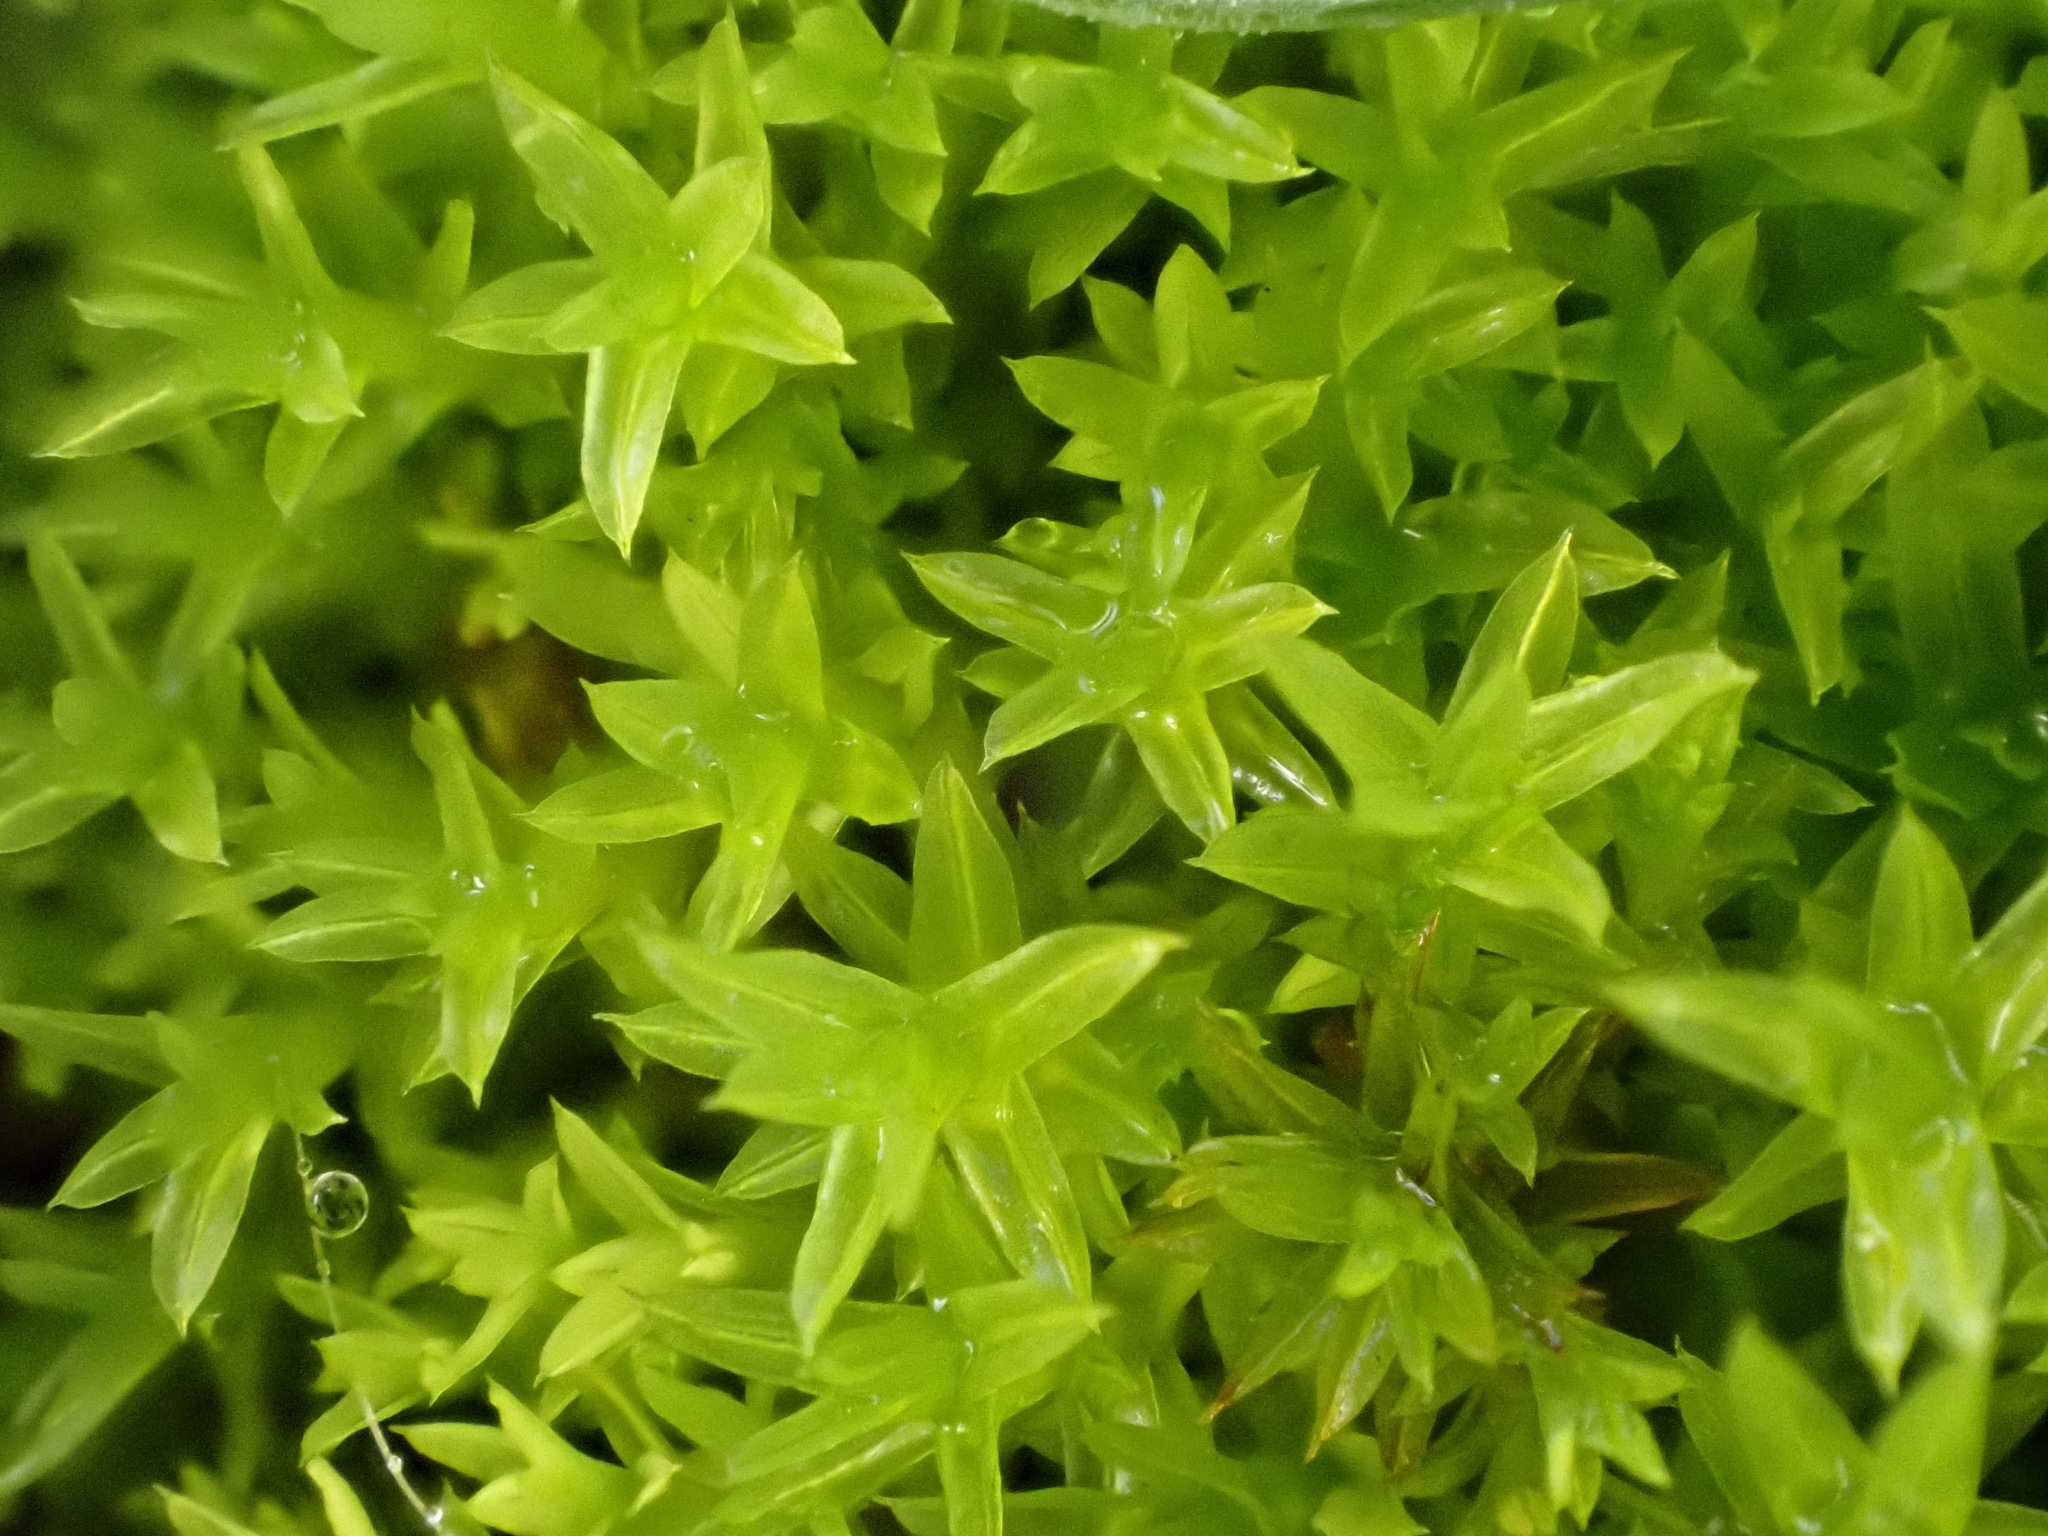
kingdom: Plantae
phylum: Bryophyta
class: Bryopsida
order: Pottiales
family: Pottiaceae
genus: Barbula
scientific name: Barbula unguiculata
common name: Prickly beard moss
